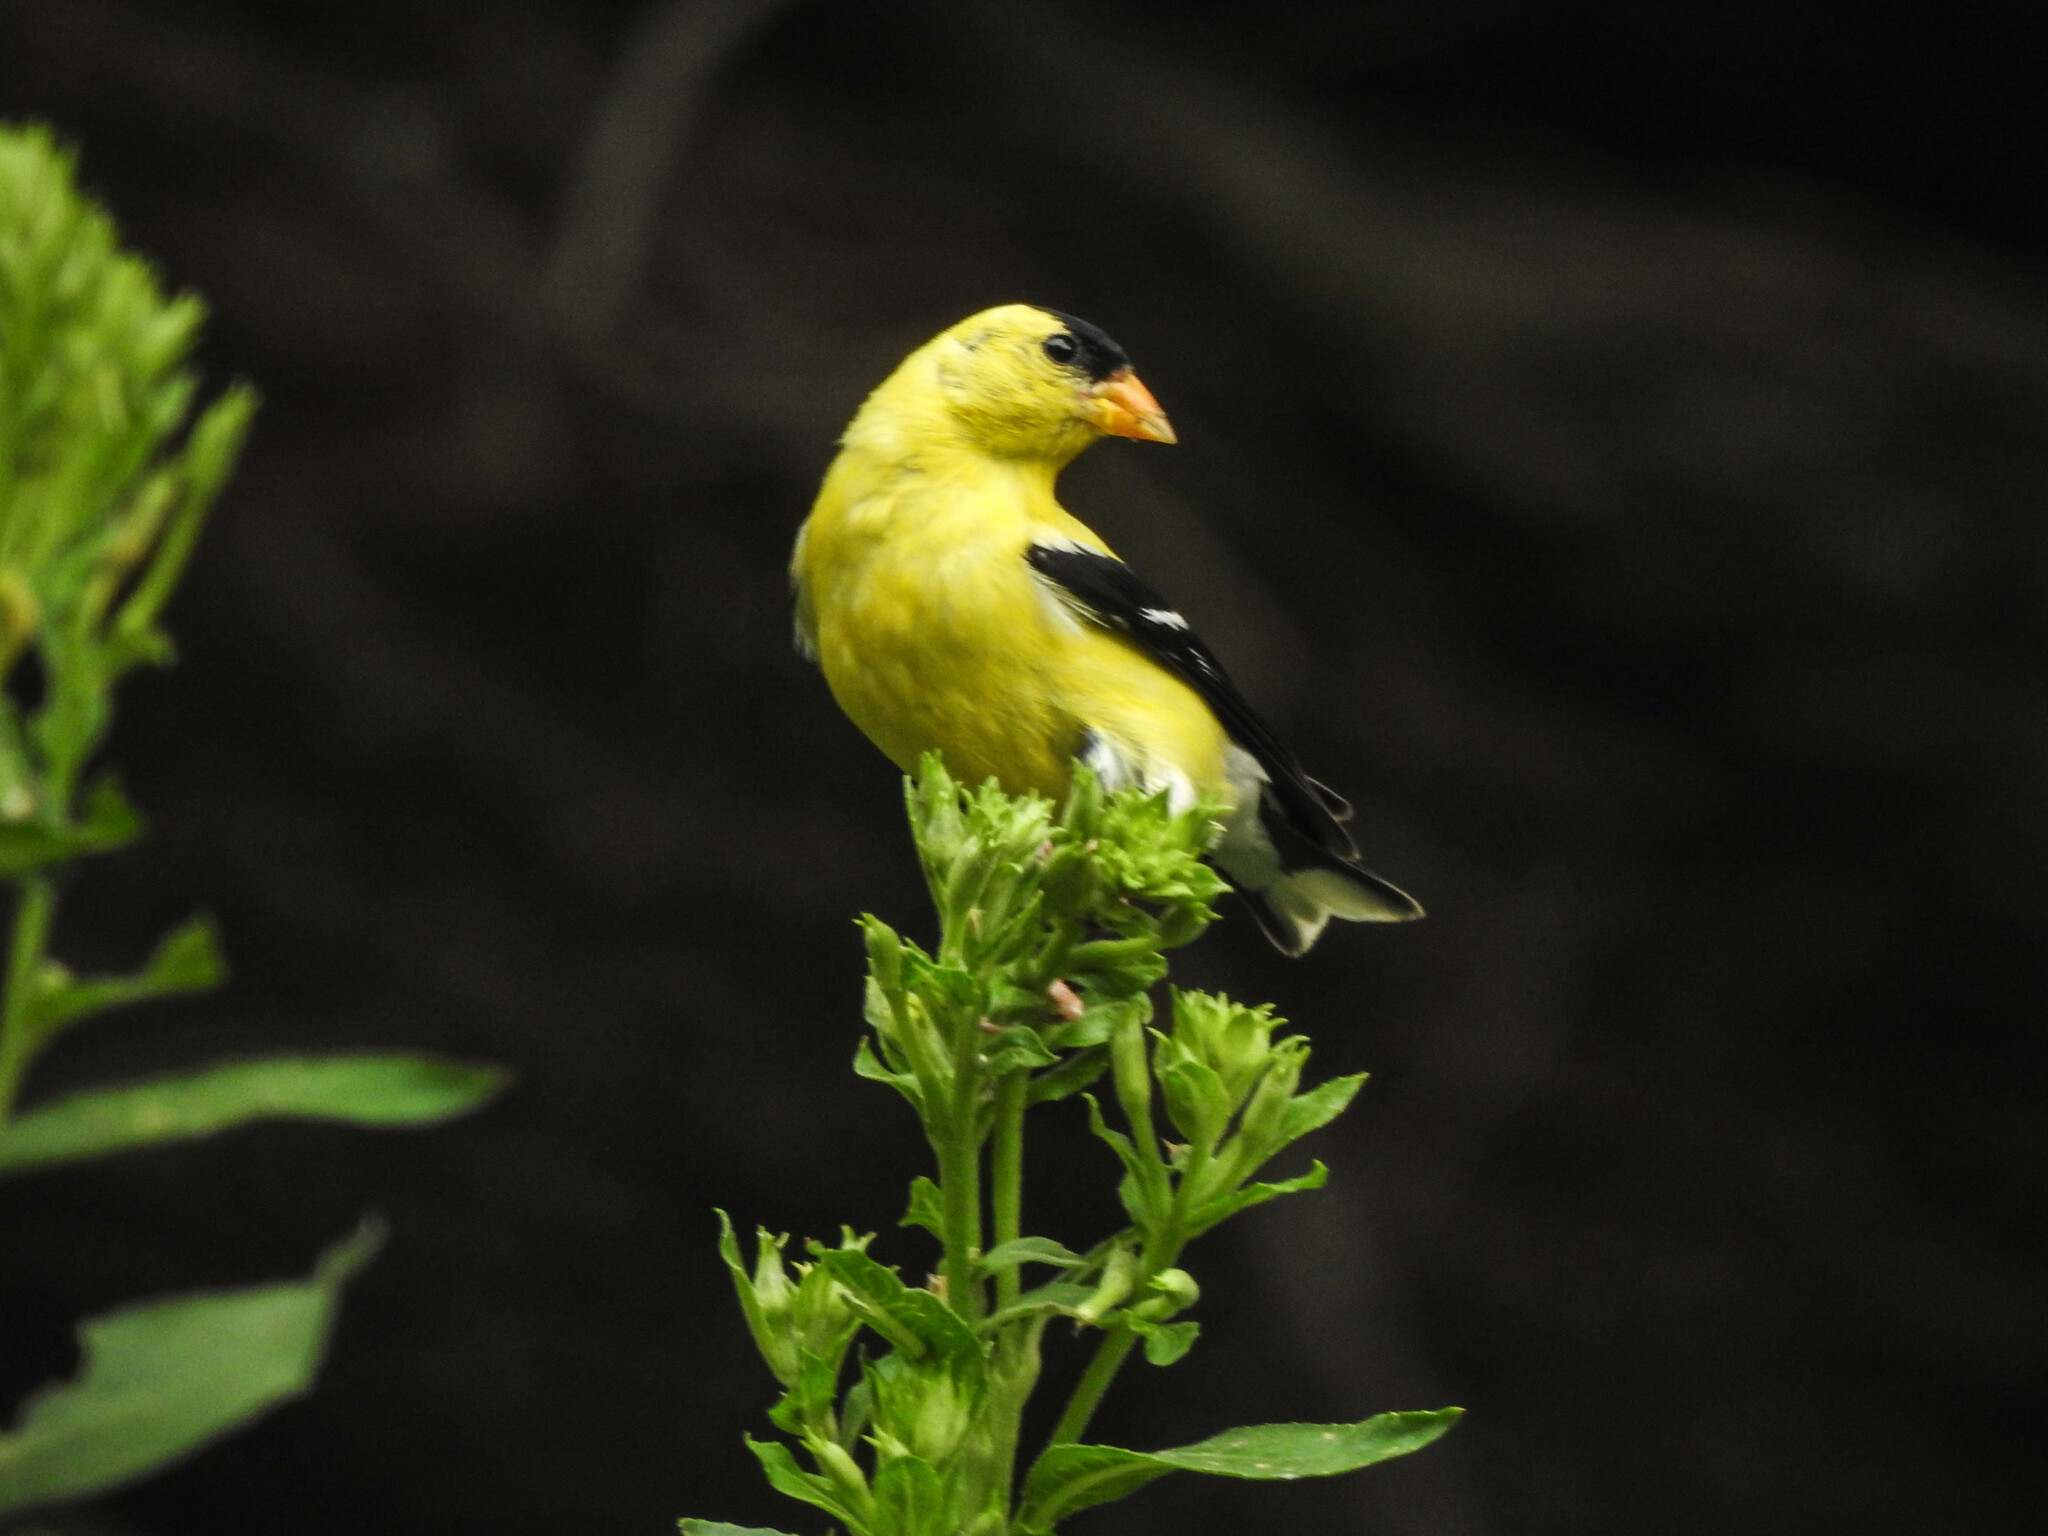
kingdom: Animalia
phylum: Chordata
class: Aves
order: Passeriformes
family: Fringillidae
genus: Spinus
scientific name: Spinus tristis
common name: American goldfinch
